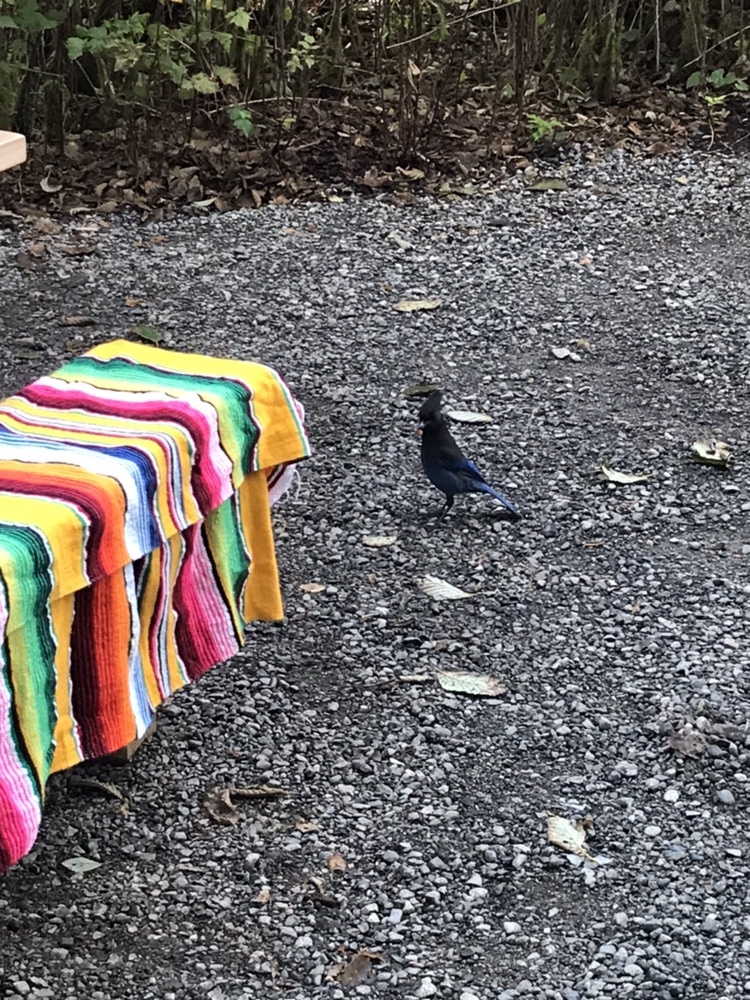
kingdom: Animalia
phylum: Chordata
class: Aves
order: Passeriformes
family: Corvidae
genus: Cyanocitta
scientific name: Cyanocitta stelleri
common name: Steller's jay
